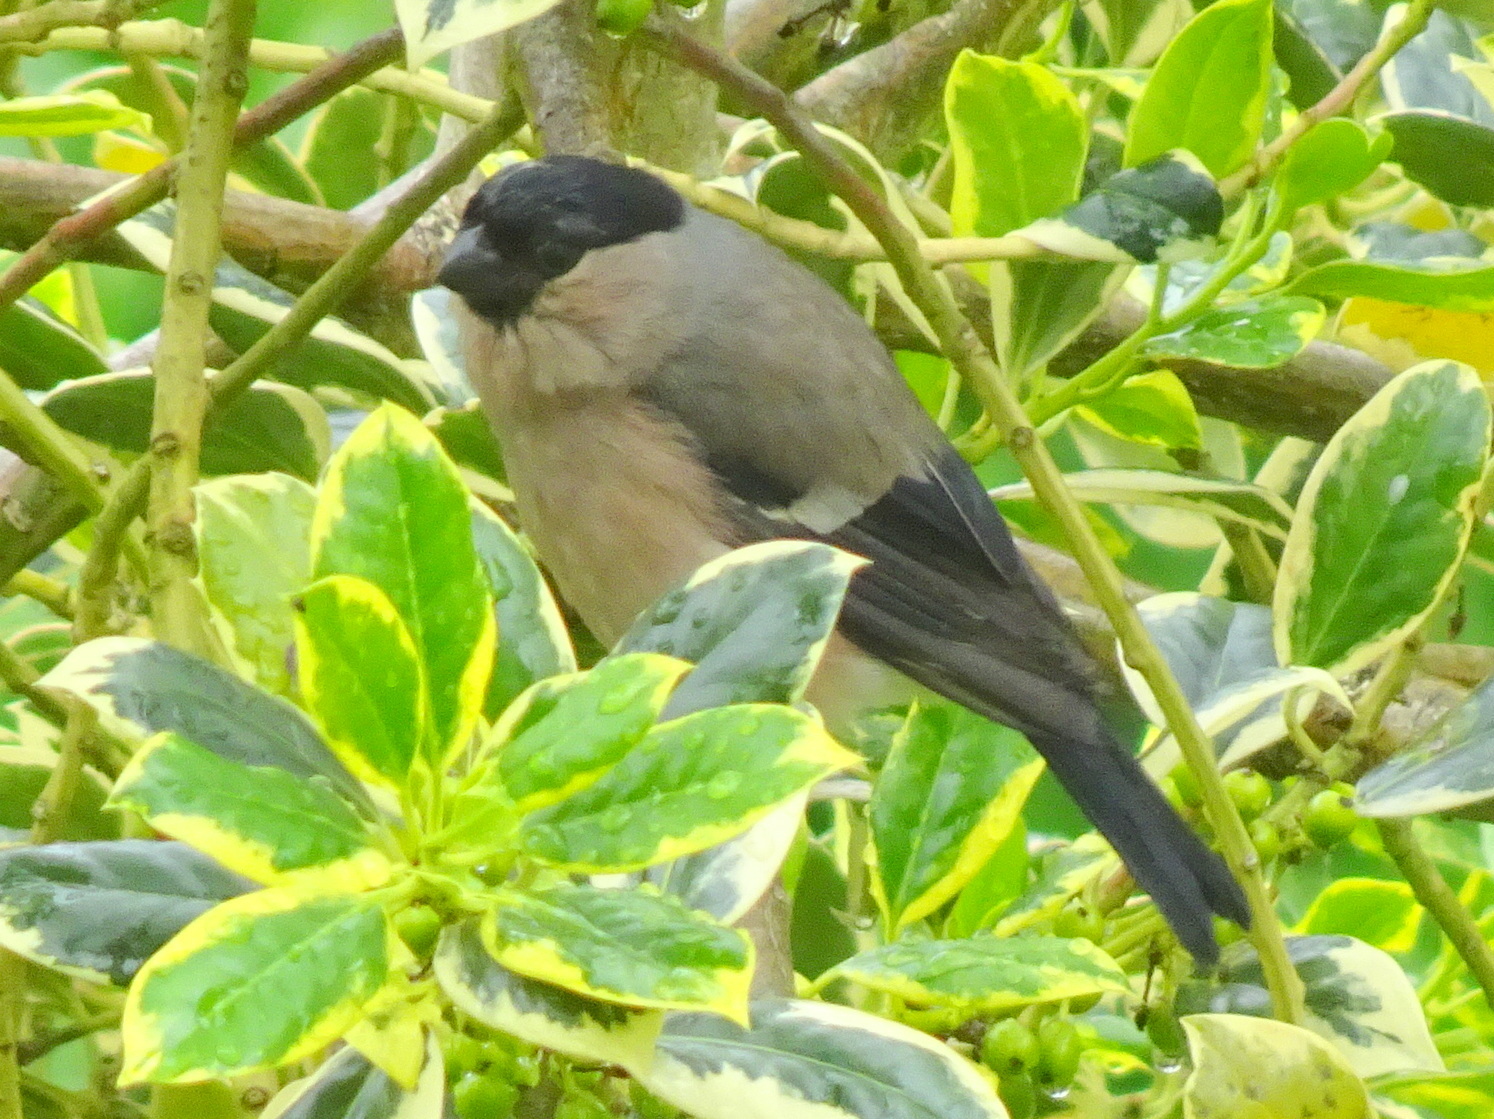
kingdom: Animalia
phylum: Chordata
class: Aves
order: Passeriformes
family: Fringillidae
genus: Pyrrhula
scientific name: Pyrrhula pyrrhula
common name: Eurasian bullfinch
